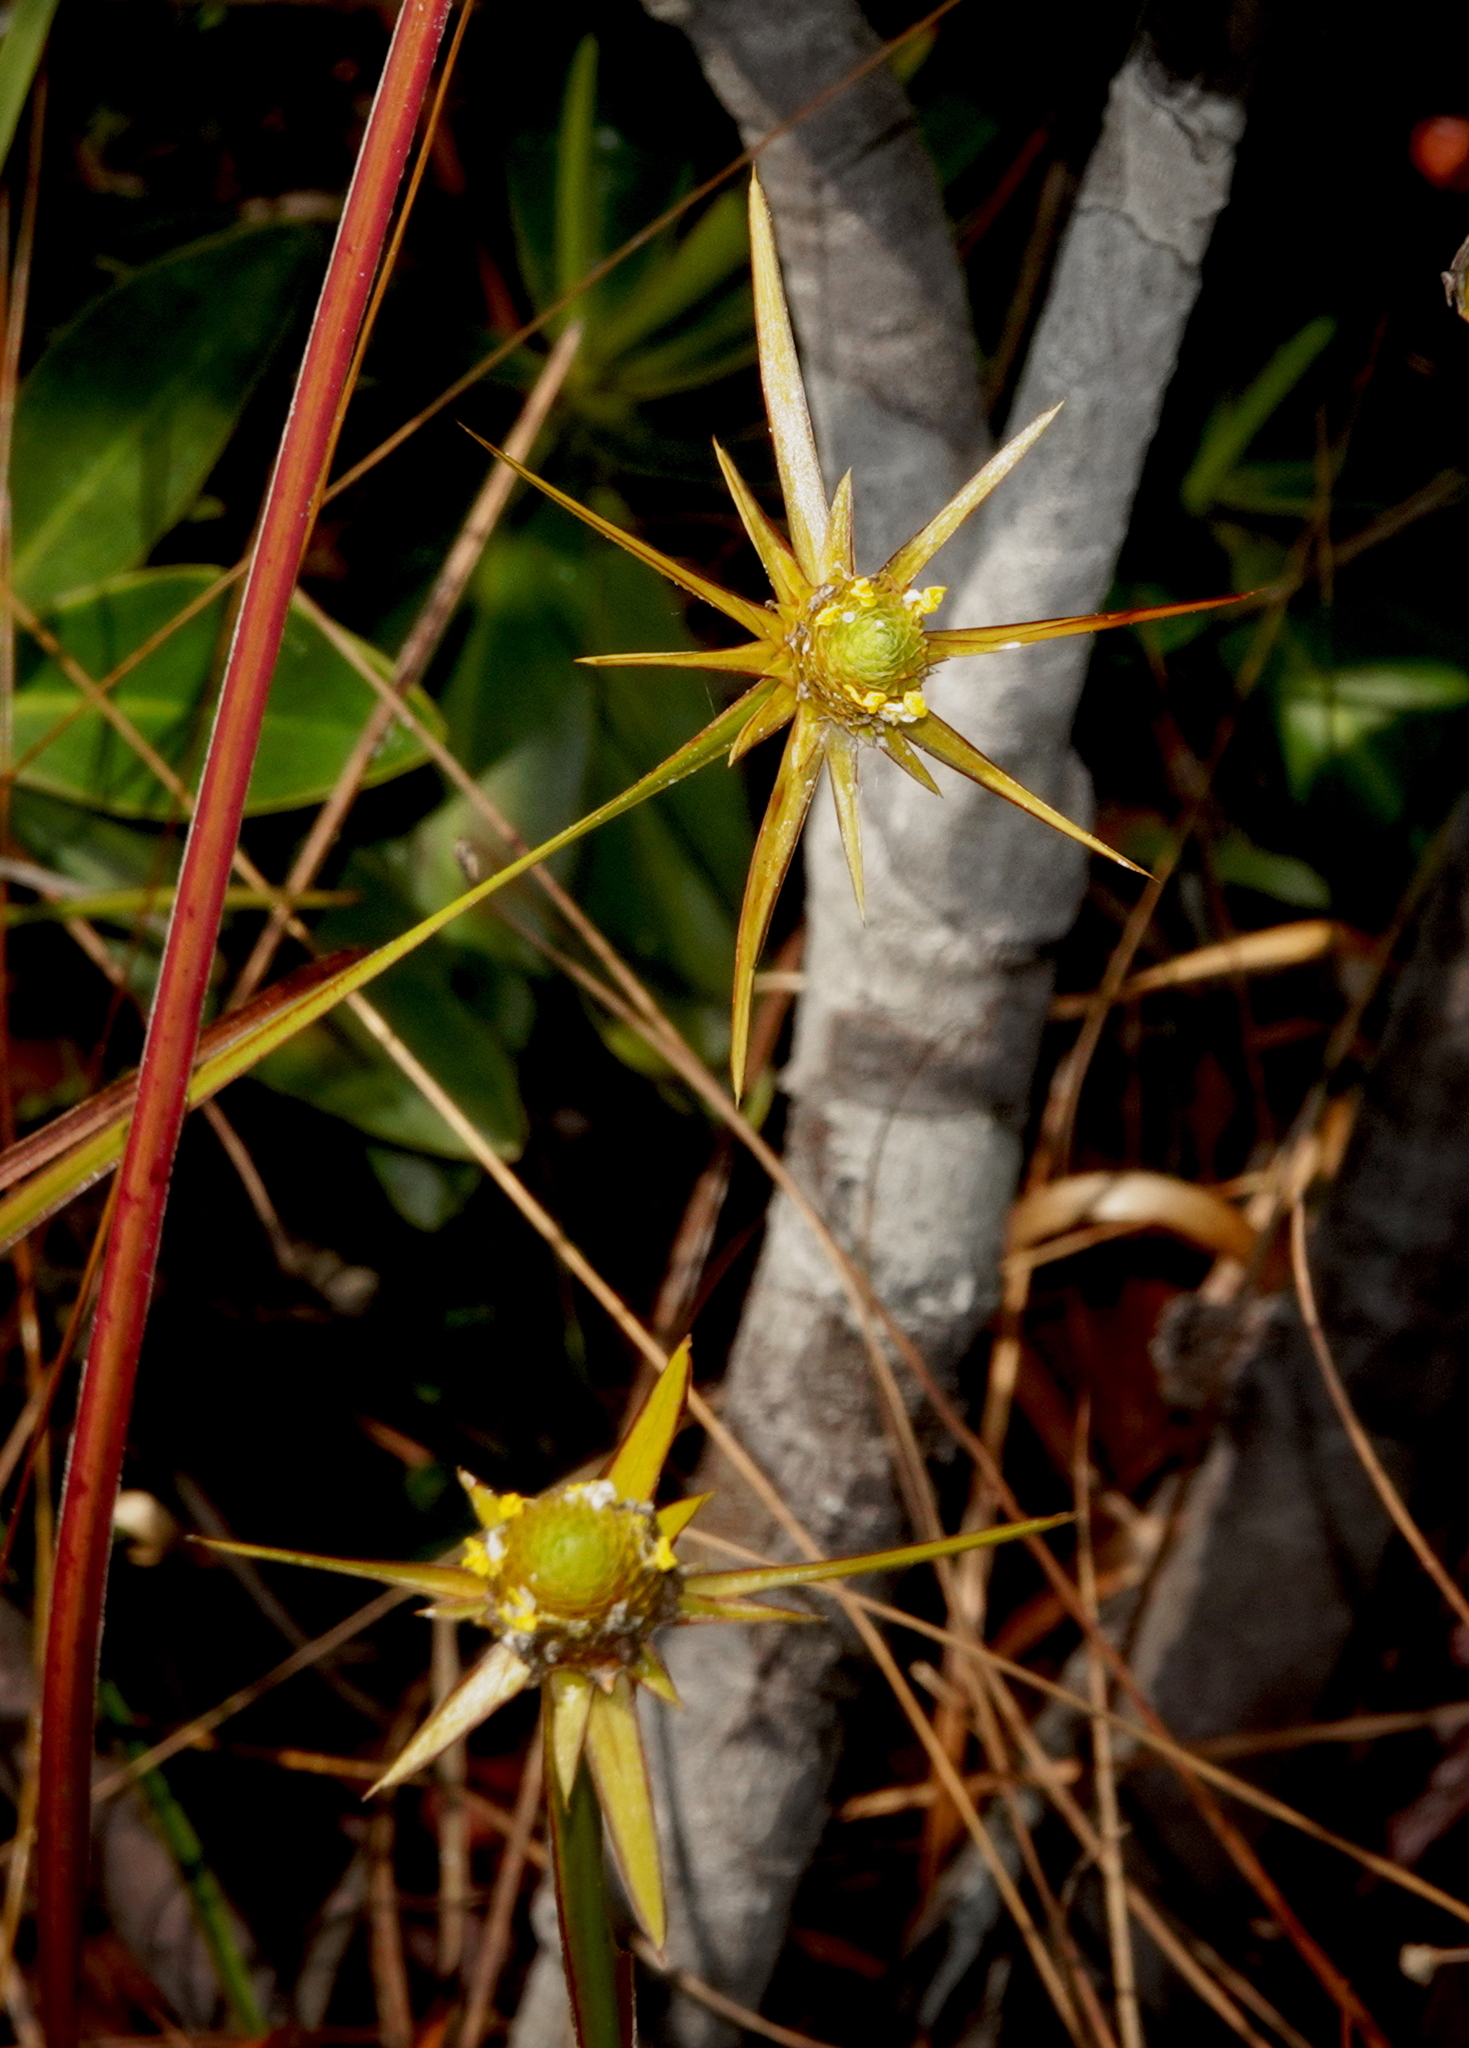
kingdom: Plantae
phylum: Tracheophyta
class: Liliopsida
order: Poales
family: Xyridaceae
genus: Xyris
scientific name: Xyris involucrata
